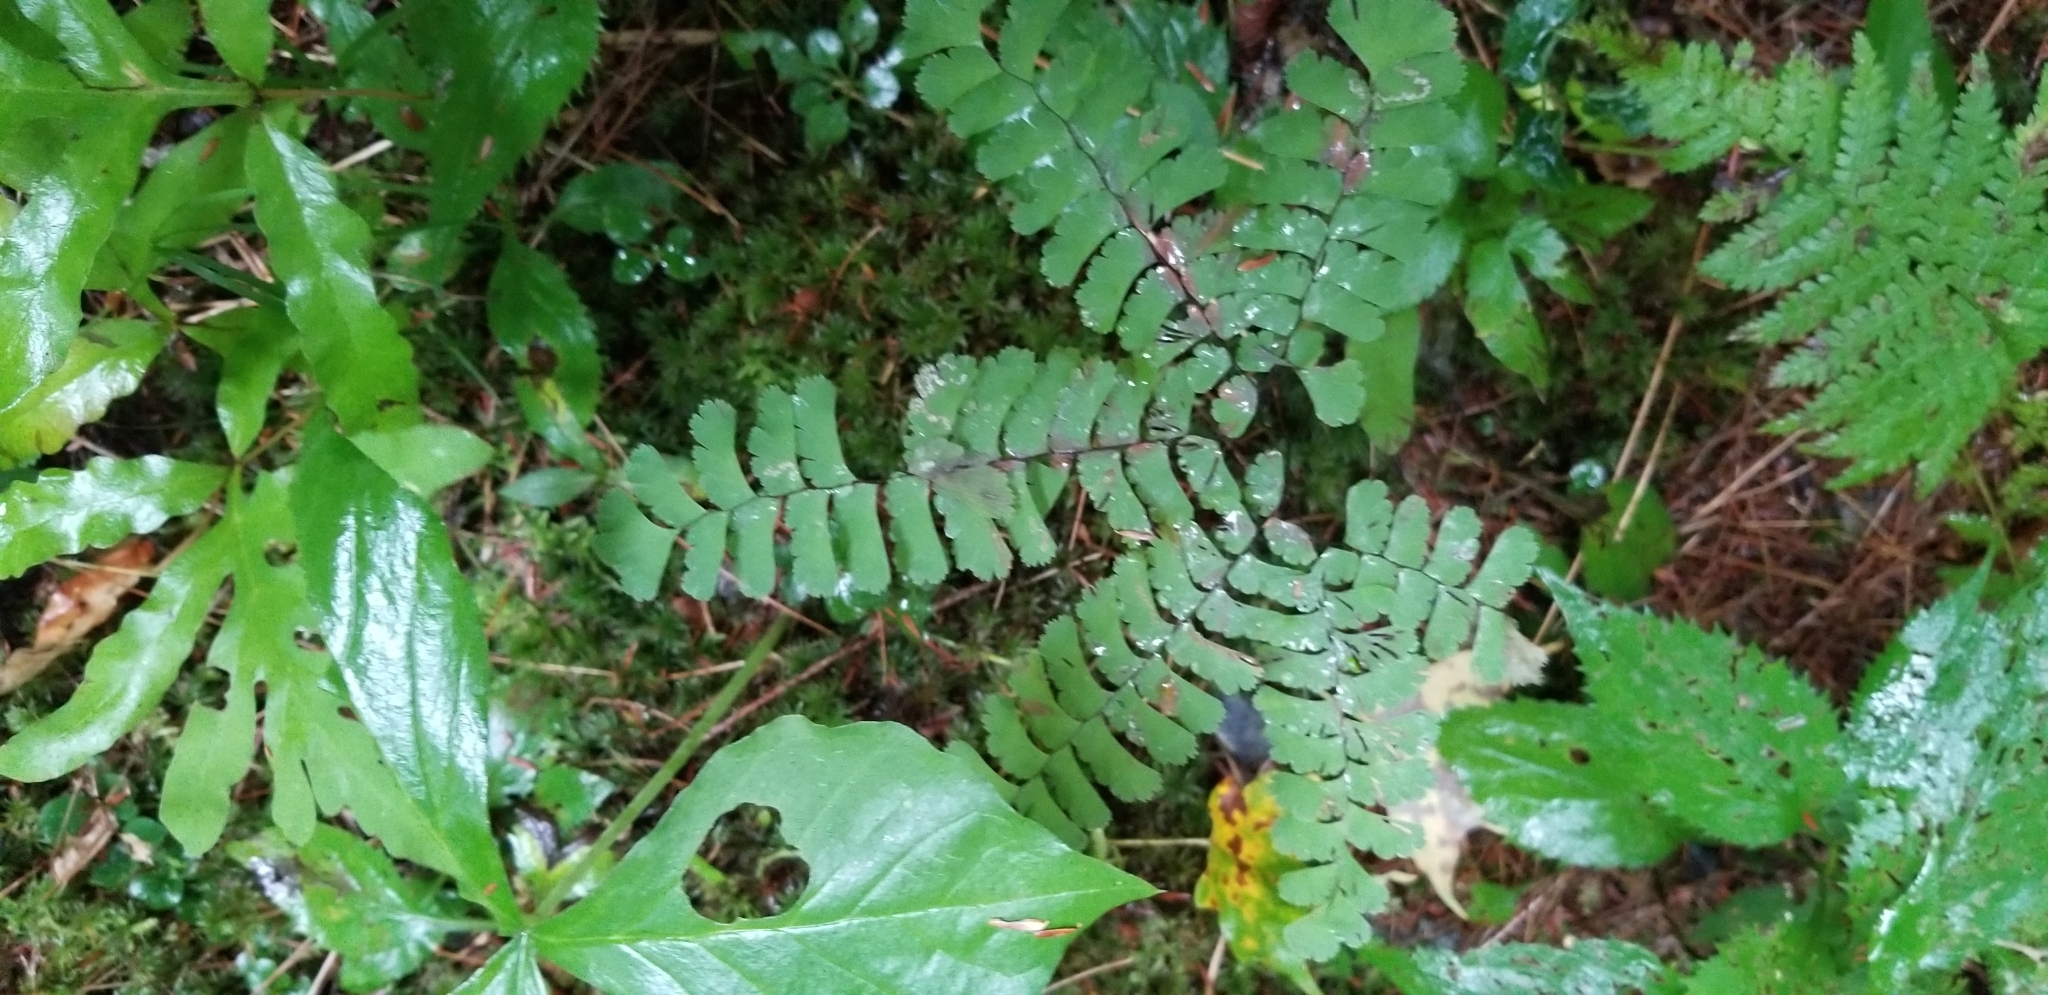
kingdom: Plantae
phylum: Tracheophyta
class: Polypodiopsida
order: Polypodiales
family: Pteridaceae
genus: Adiantum
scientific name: Adiantum pedatum
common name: Five-finger fern
